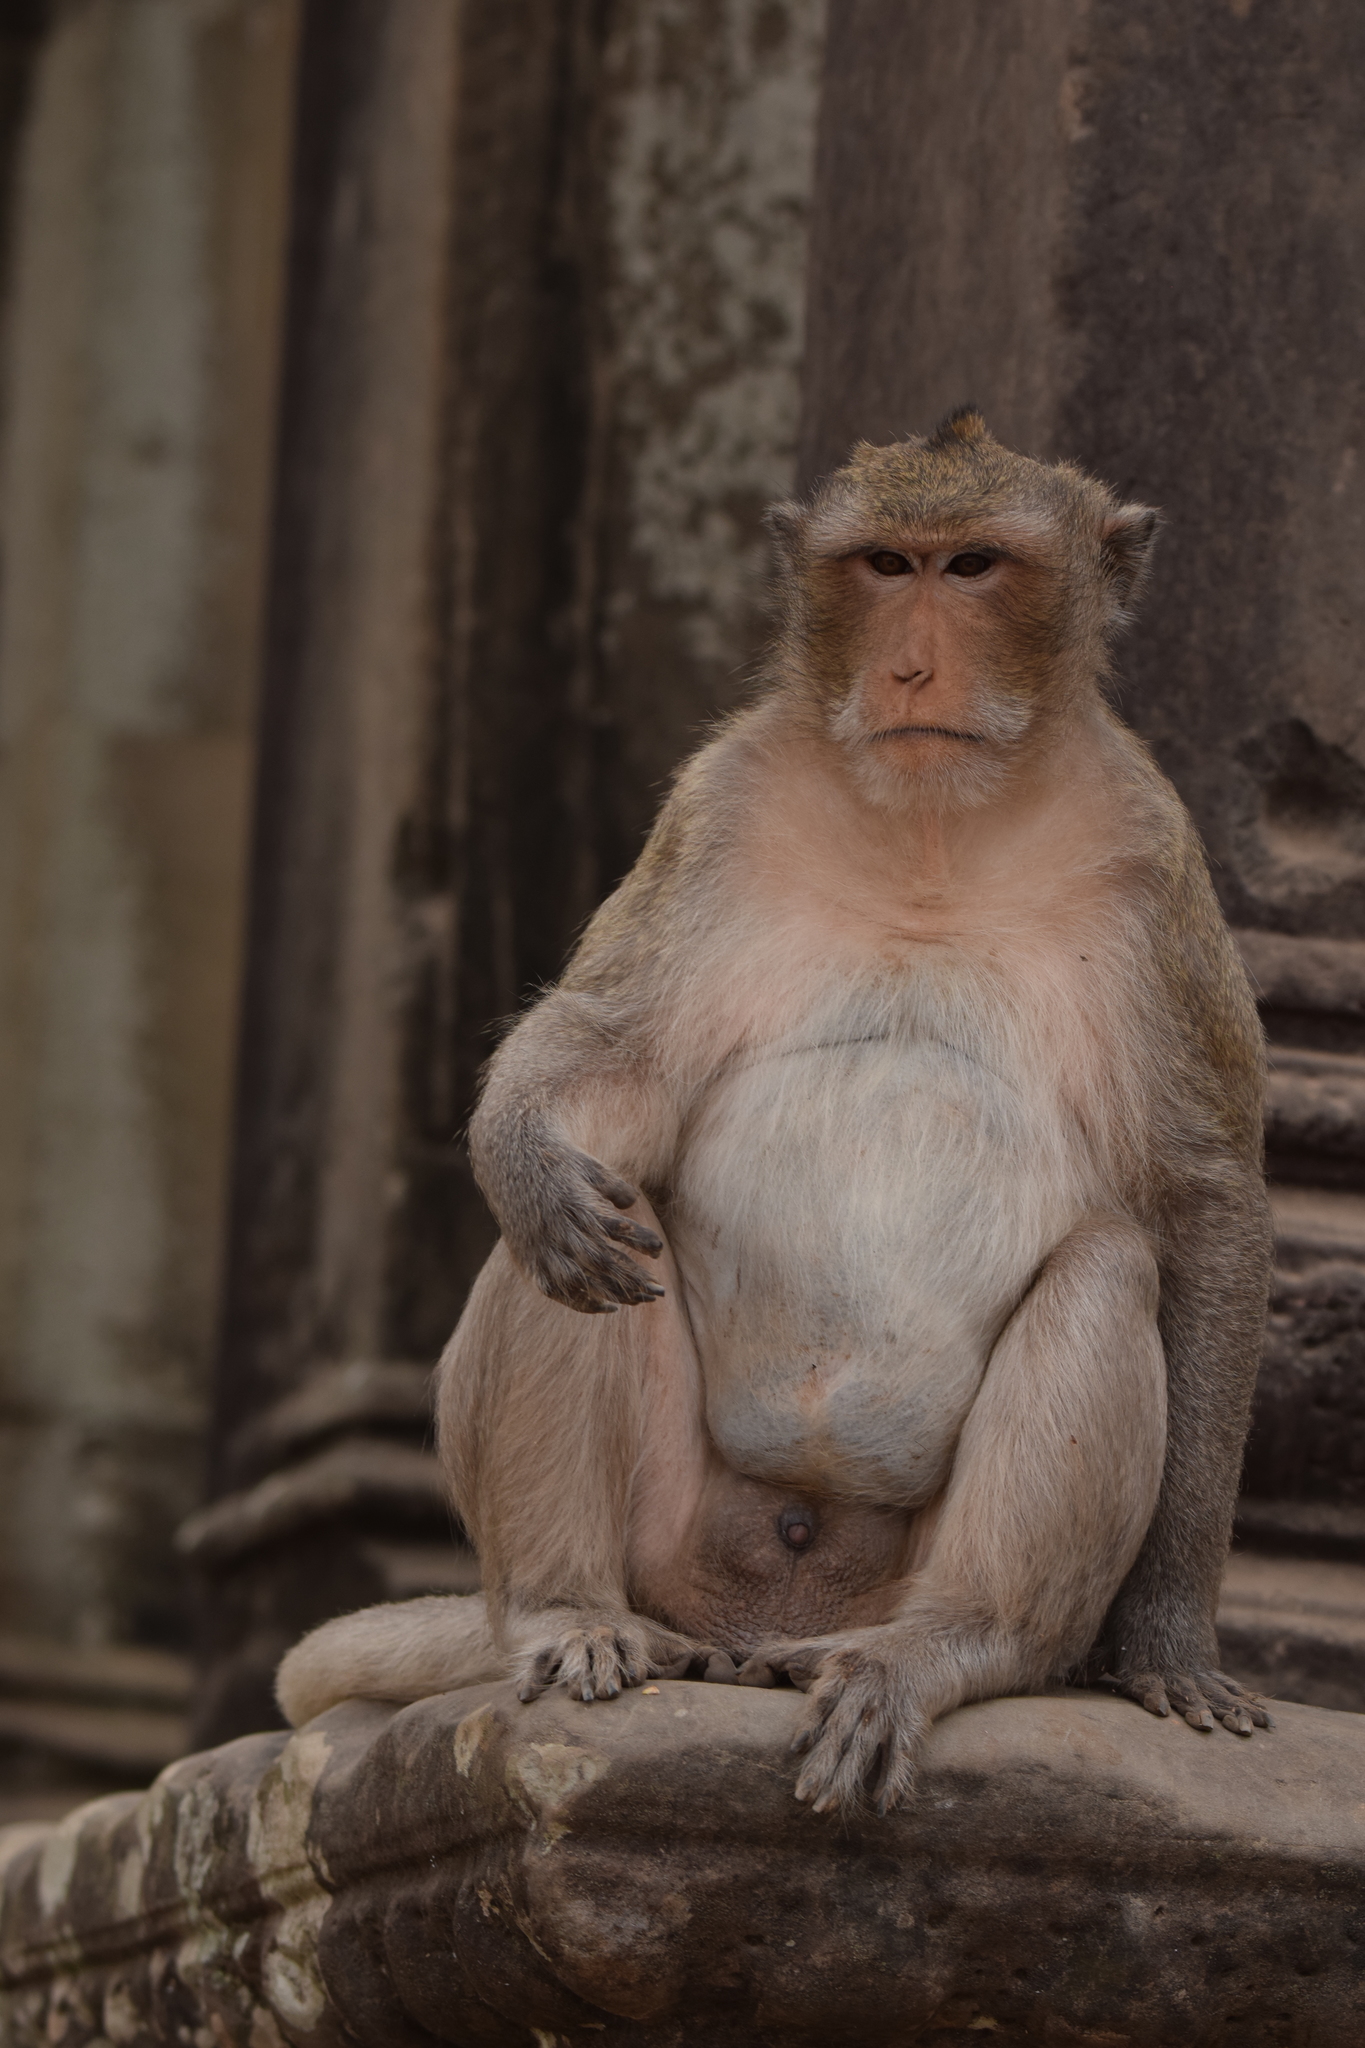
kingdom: Animalia
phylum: Chordata
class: Mammalia
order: Primates
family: Cercopithecidae
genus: Macaca
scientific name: Macaca fascicularis
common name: Crab-eating macaque
